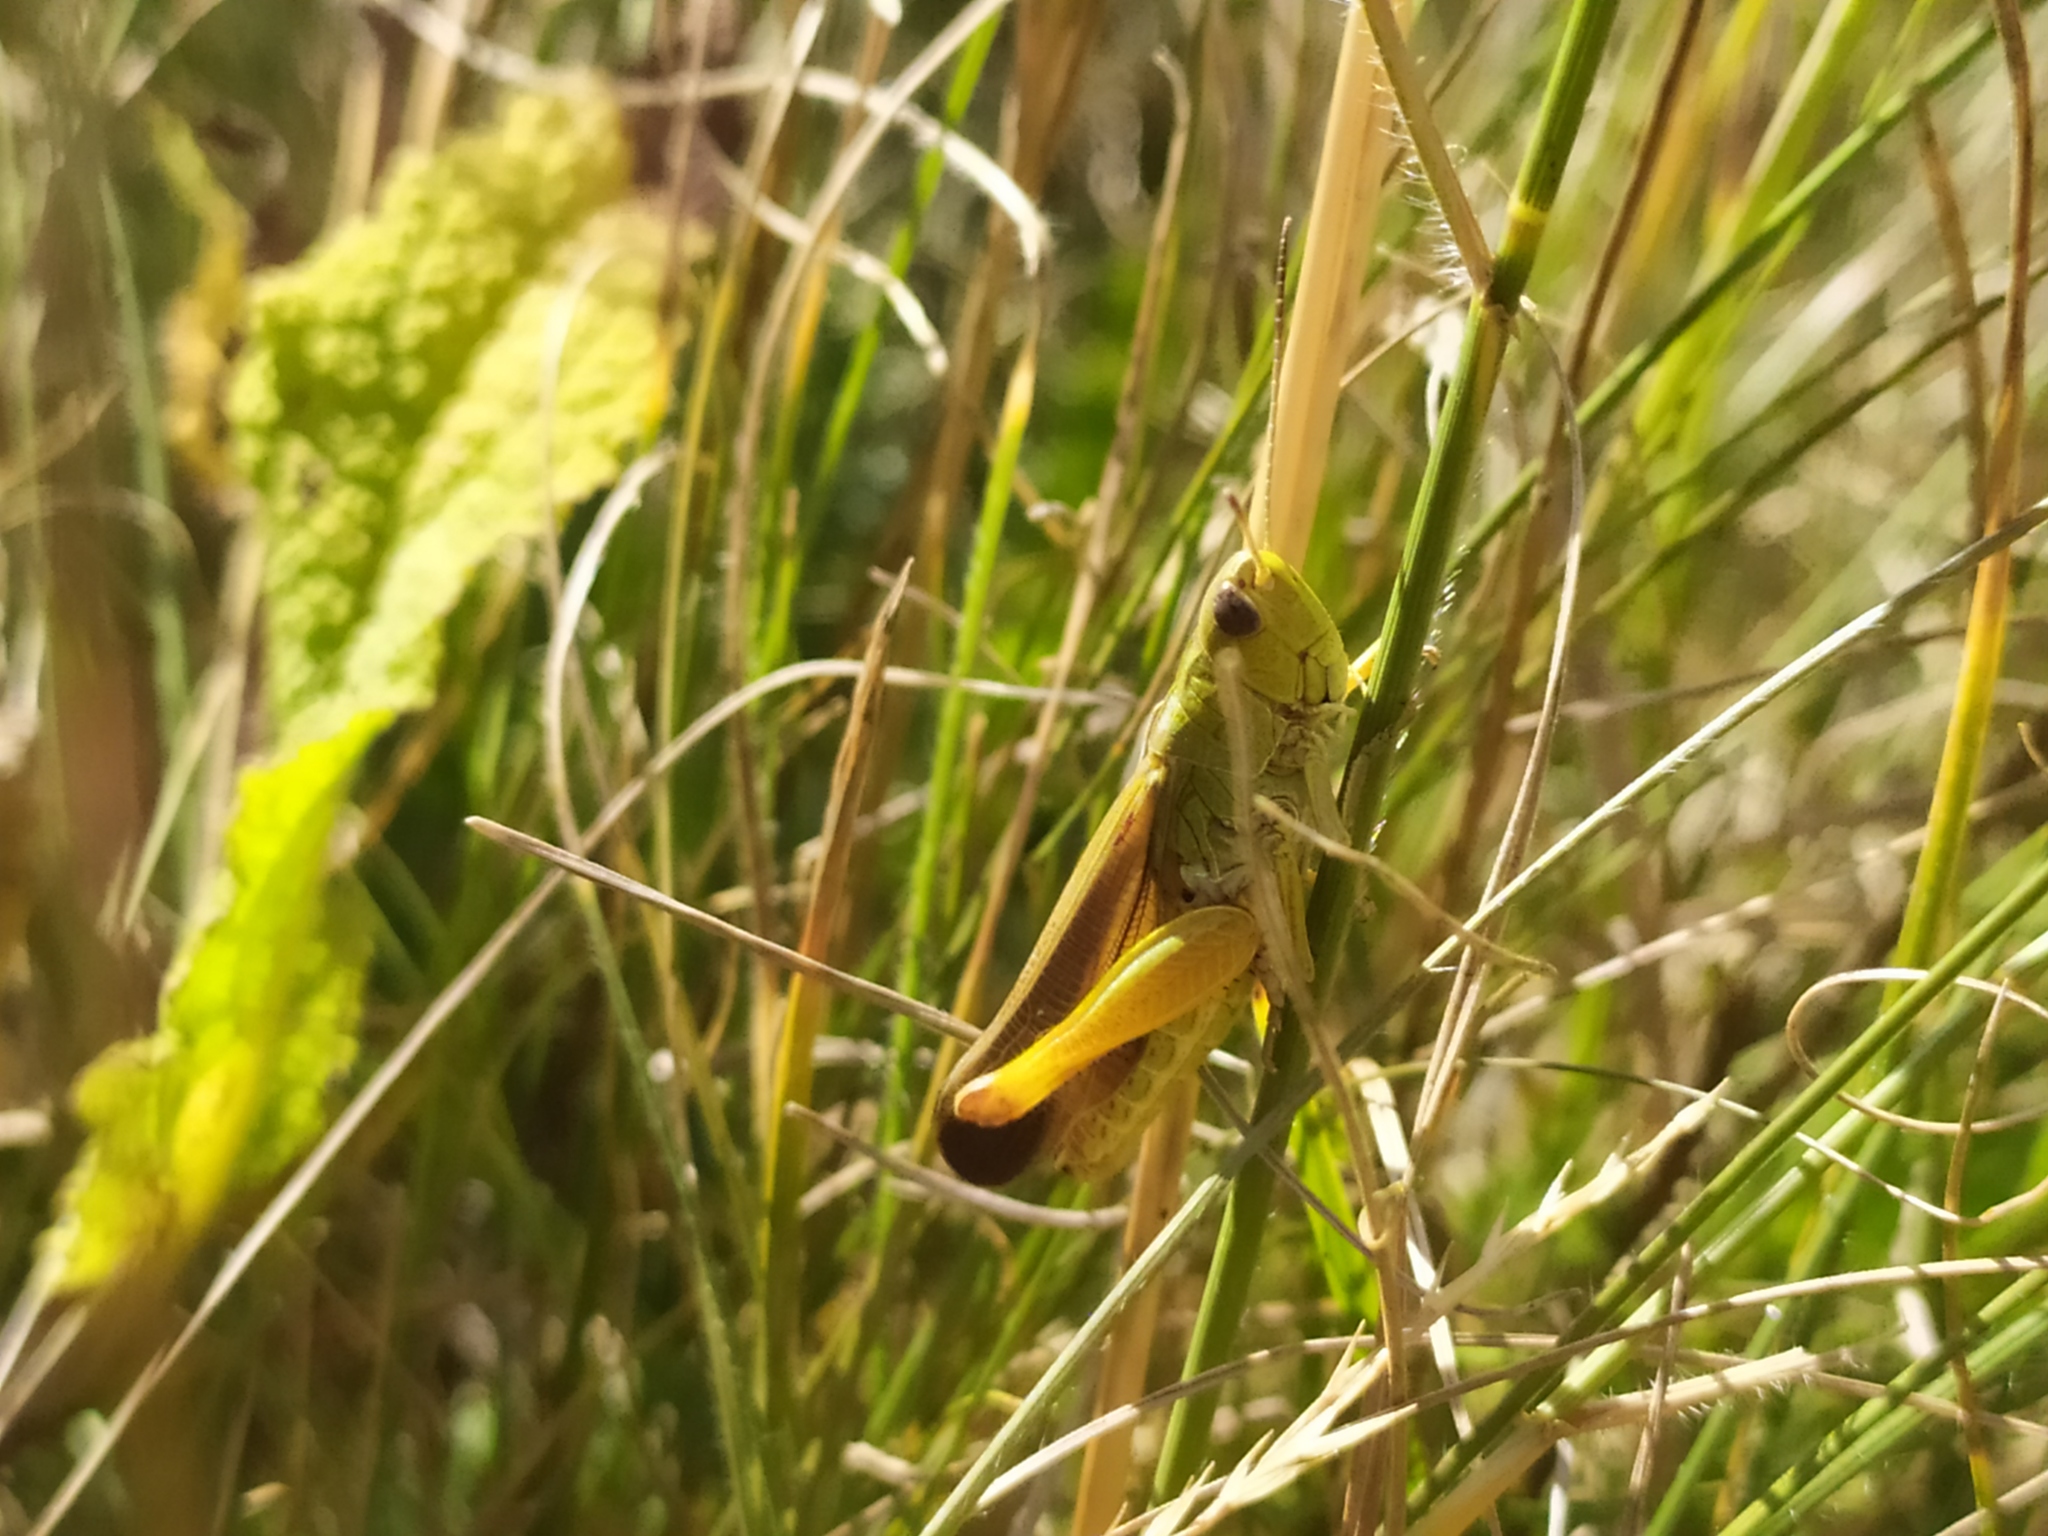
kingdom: Animalia
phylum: Arthropoda
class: Insecta
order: Orthoptera
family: Acrididae
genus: Stauroderus
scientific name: Stauroderus scalaris
